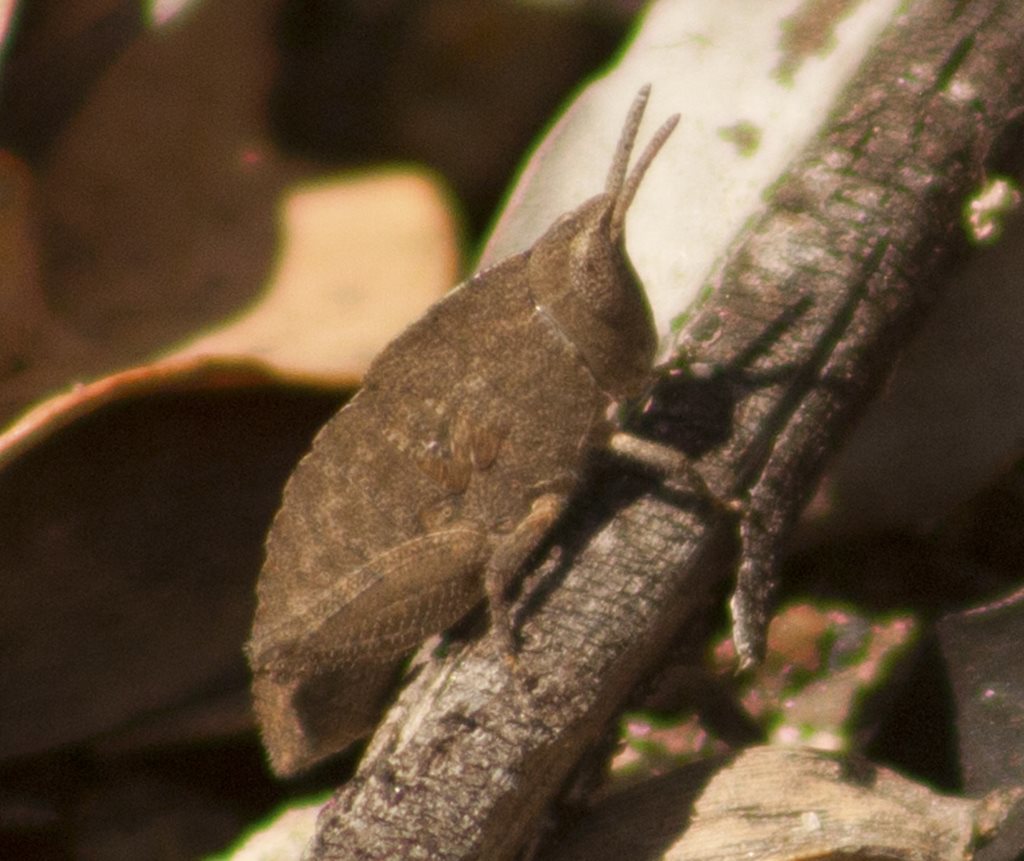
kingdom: Animalia
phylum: Arthropoda
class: Insecta
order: Orthoptera
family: Acrididae
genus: Goniaea
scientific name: Goniaea opomaloides
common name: Mimetic gumleaf grasshopper
